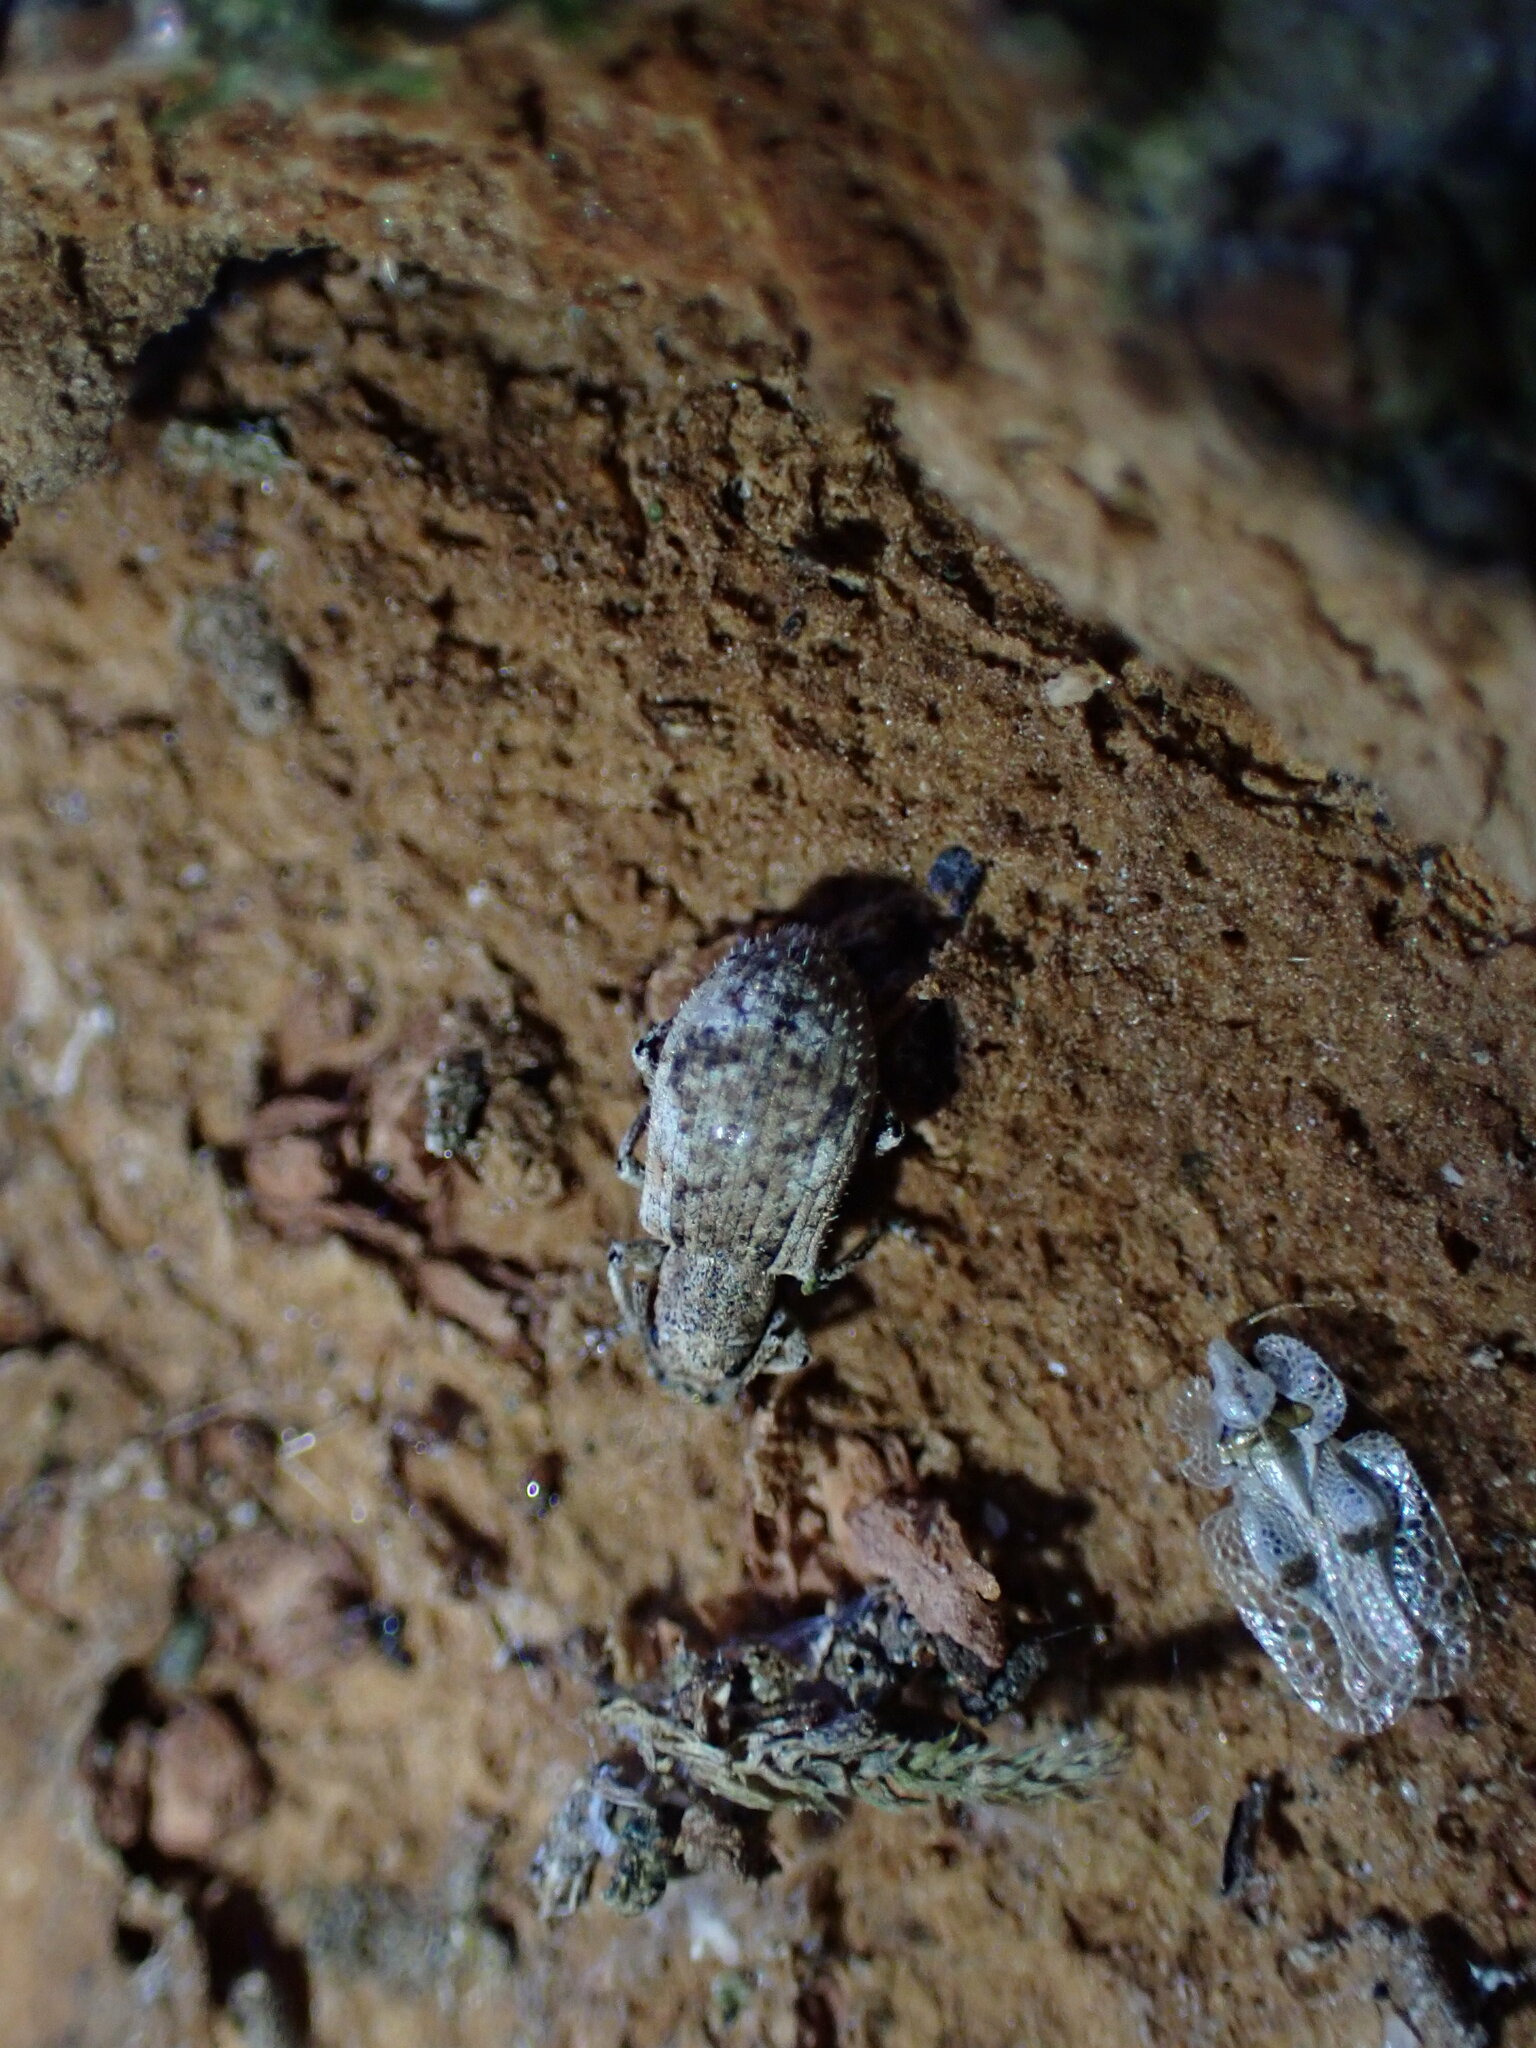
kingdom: Animalia
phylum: Arthropoda
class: Insecta
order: Coleoptera
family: Curculionidae
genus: Pseudoedophrys
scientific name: Pseudoedophrys hilleri
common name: Weevil
